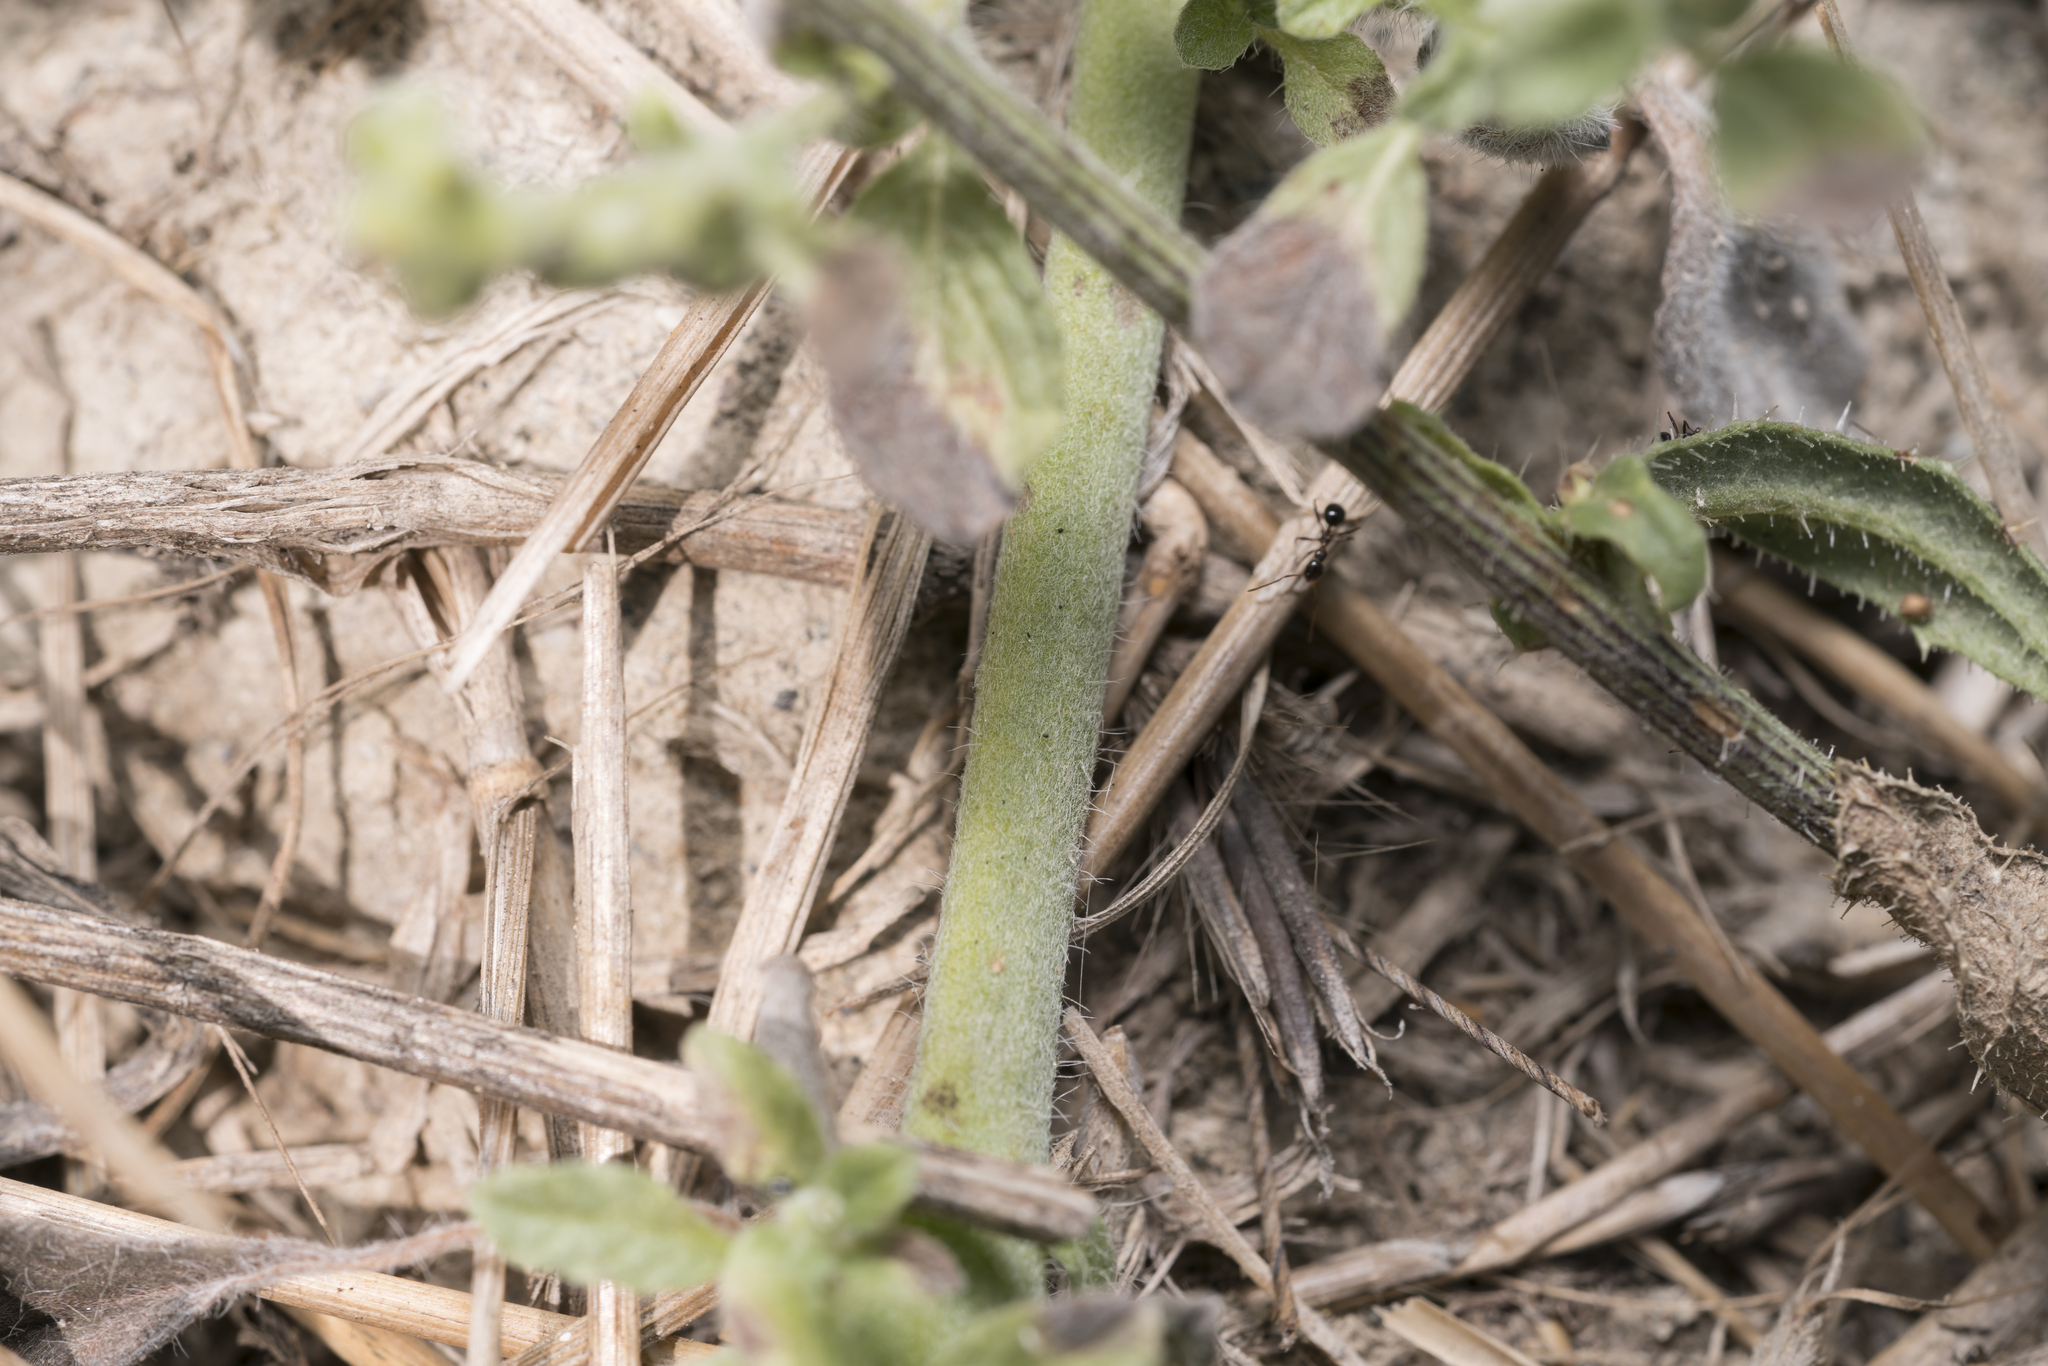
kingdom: Plantae
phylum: Tracheophyta
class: Magnoliopsida
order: Boraginales
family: Heliotropiaceae
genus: Heliotropium
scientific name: Heliotropium supinum
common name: Dwarf heliotrope
